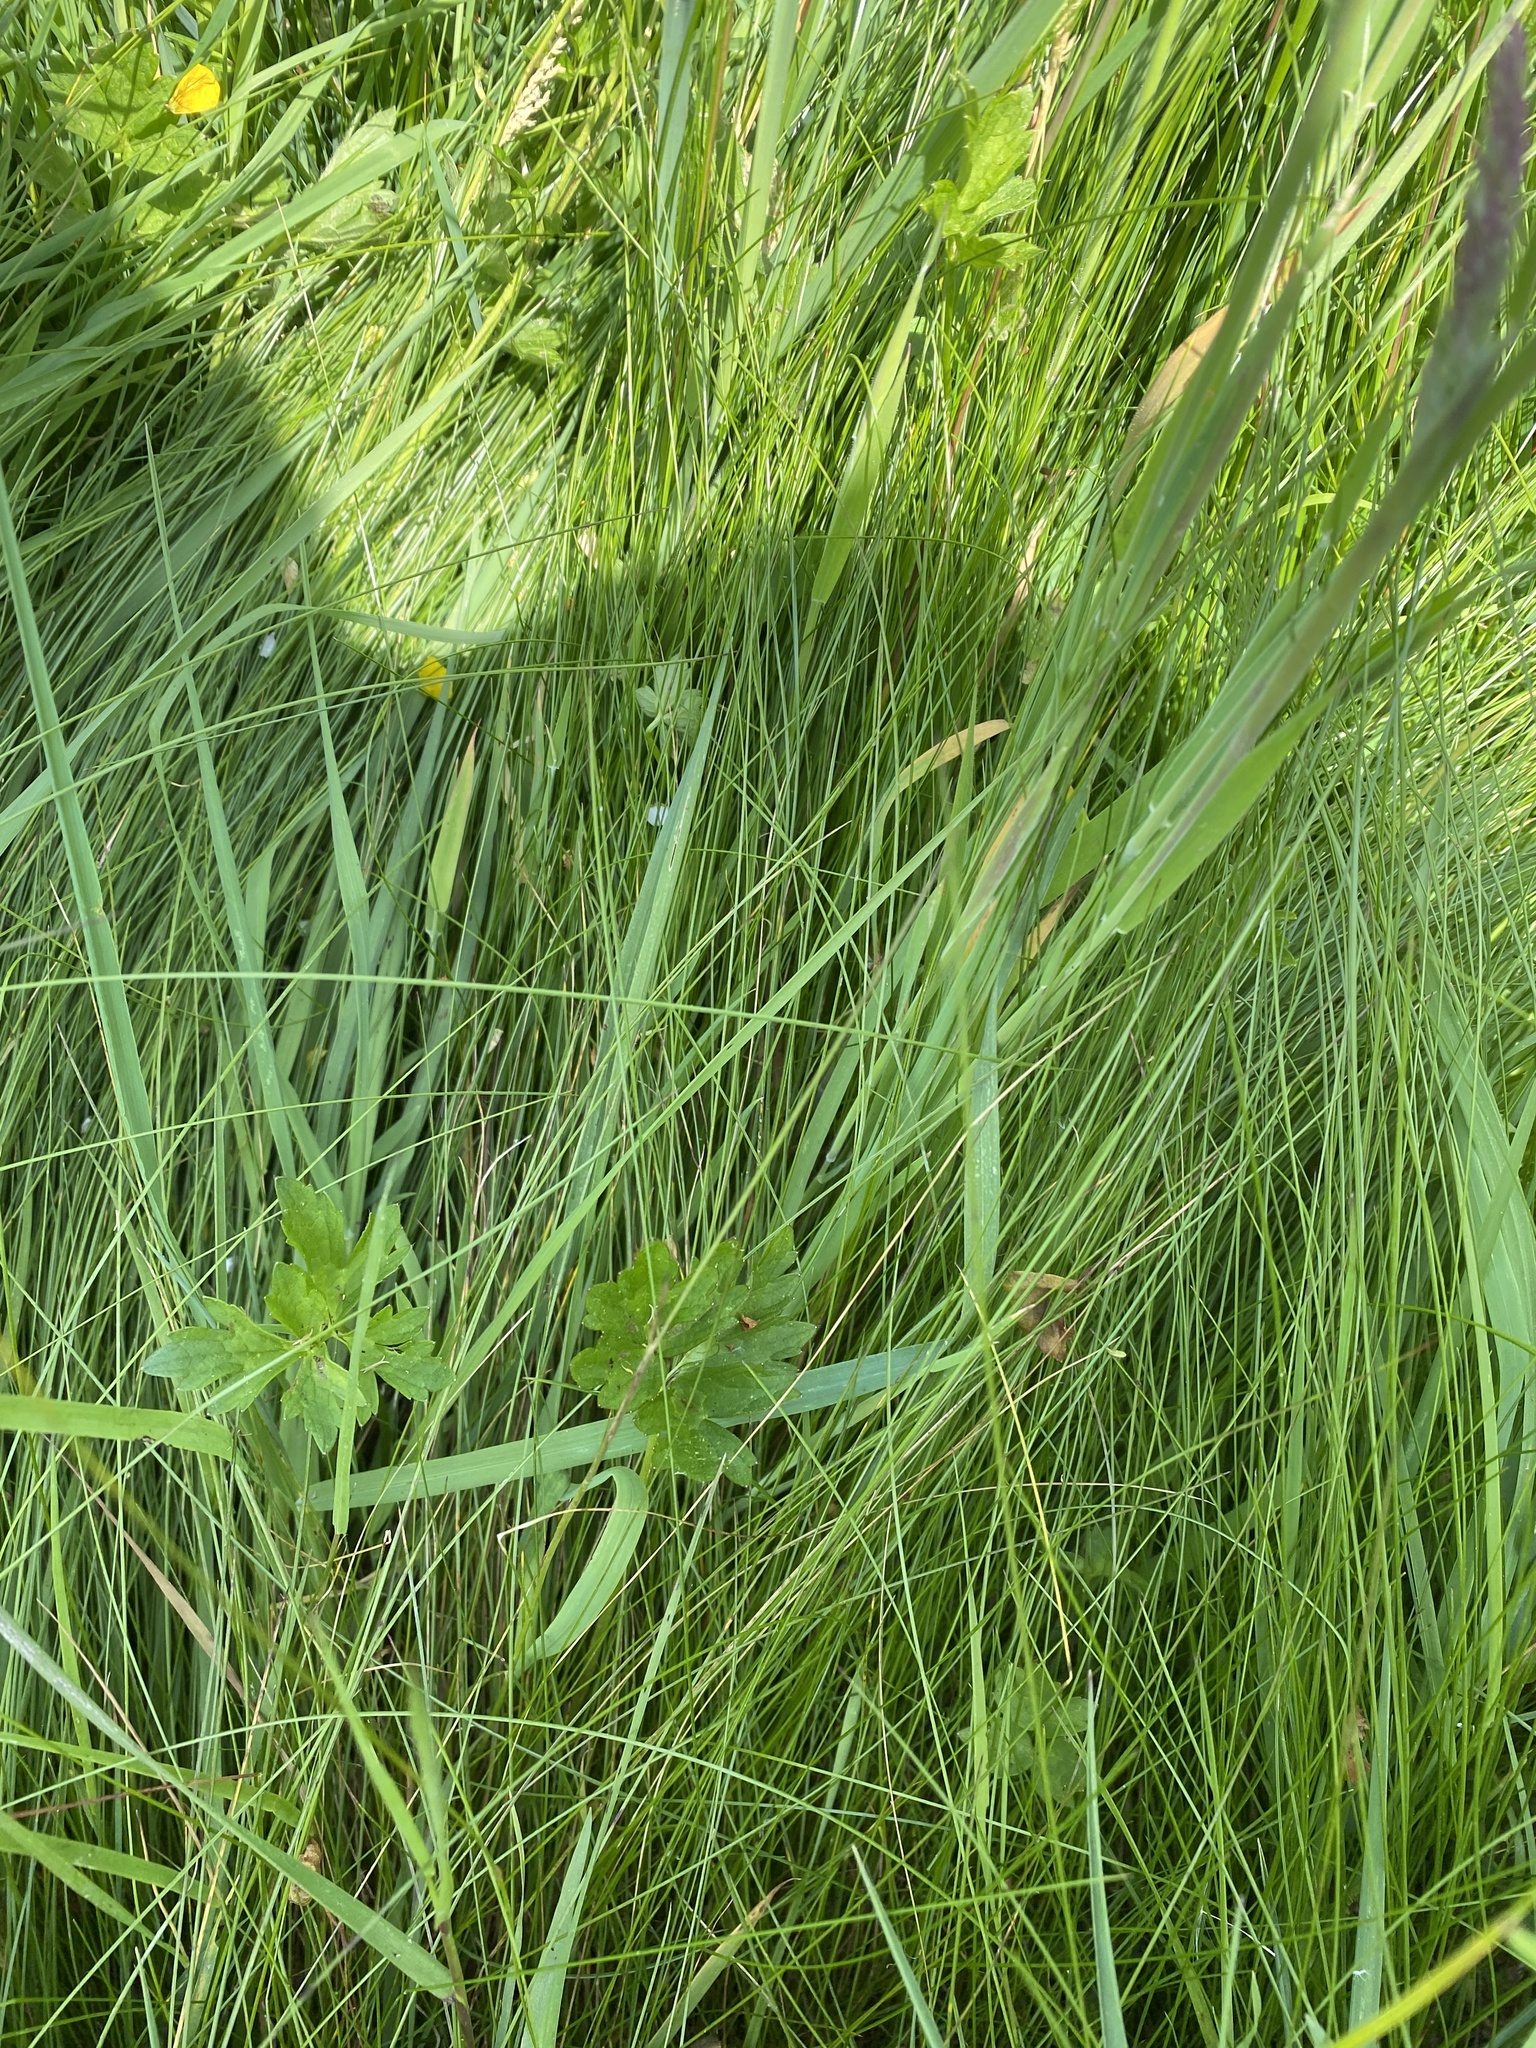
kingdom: Plantae
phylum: Tracheophyta
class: Liliopsida
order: Poales
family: Poaceae
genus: Festuca
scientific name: Festuca rubra
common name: Red fescue
